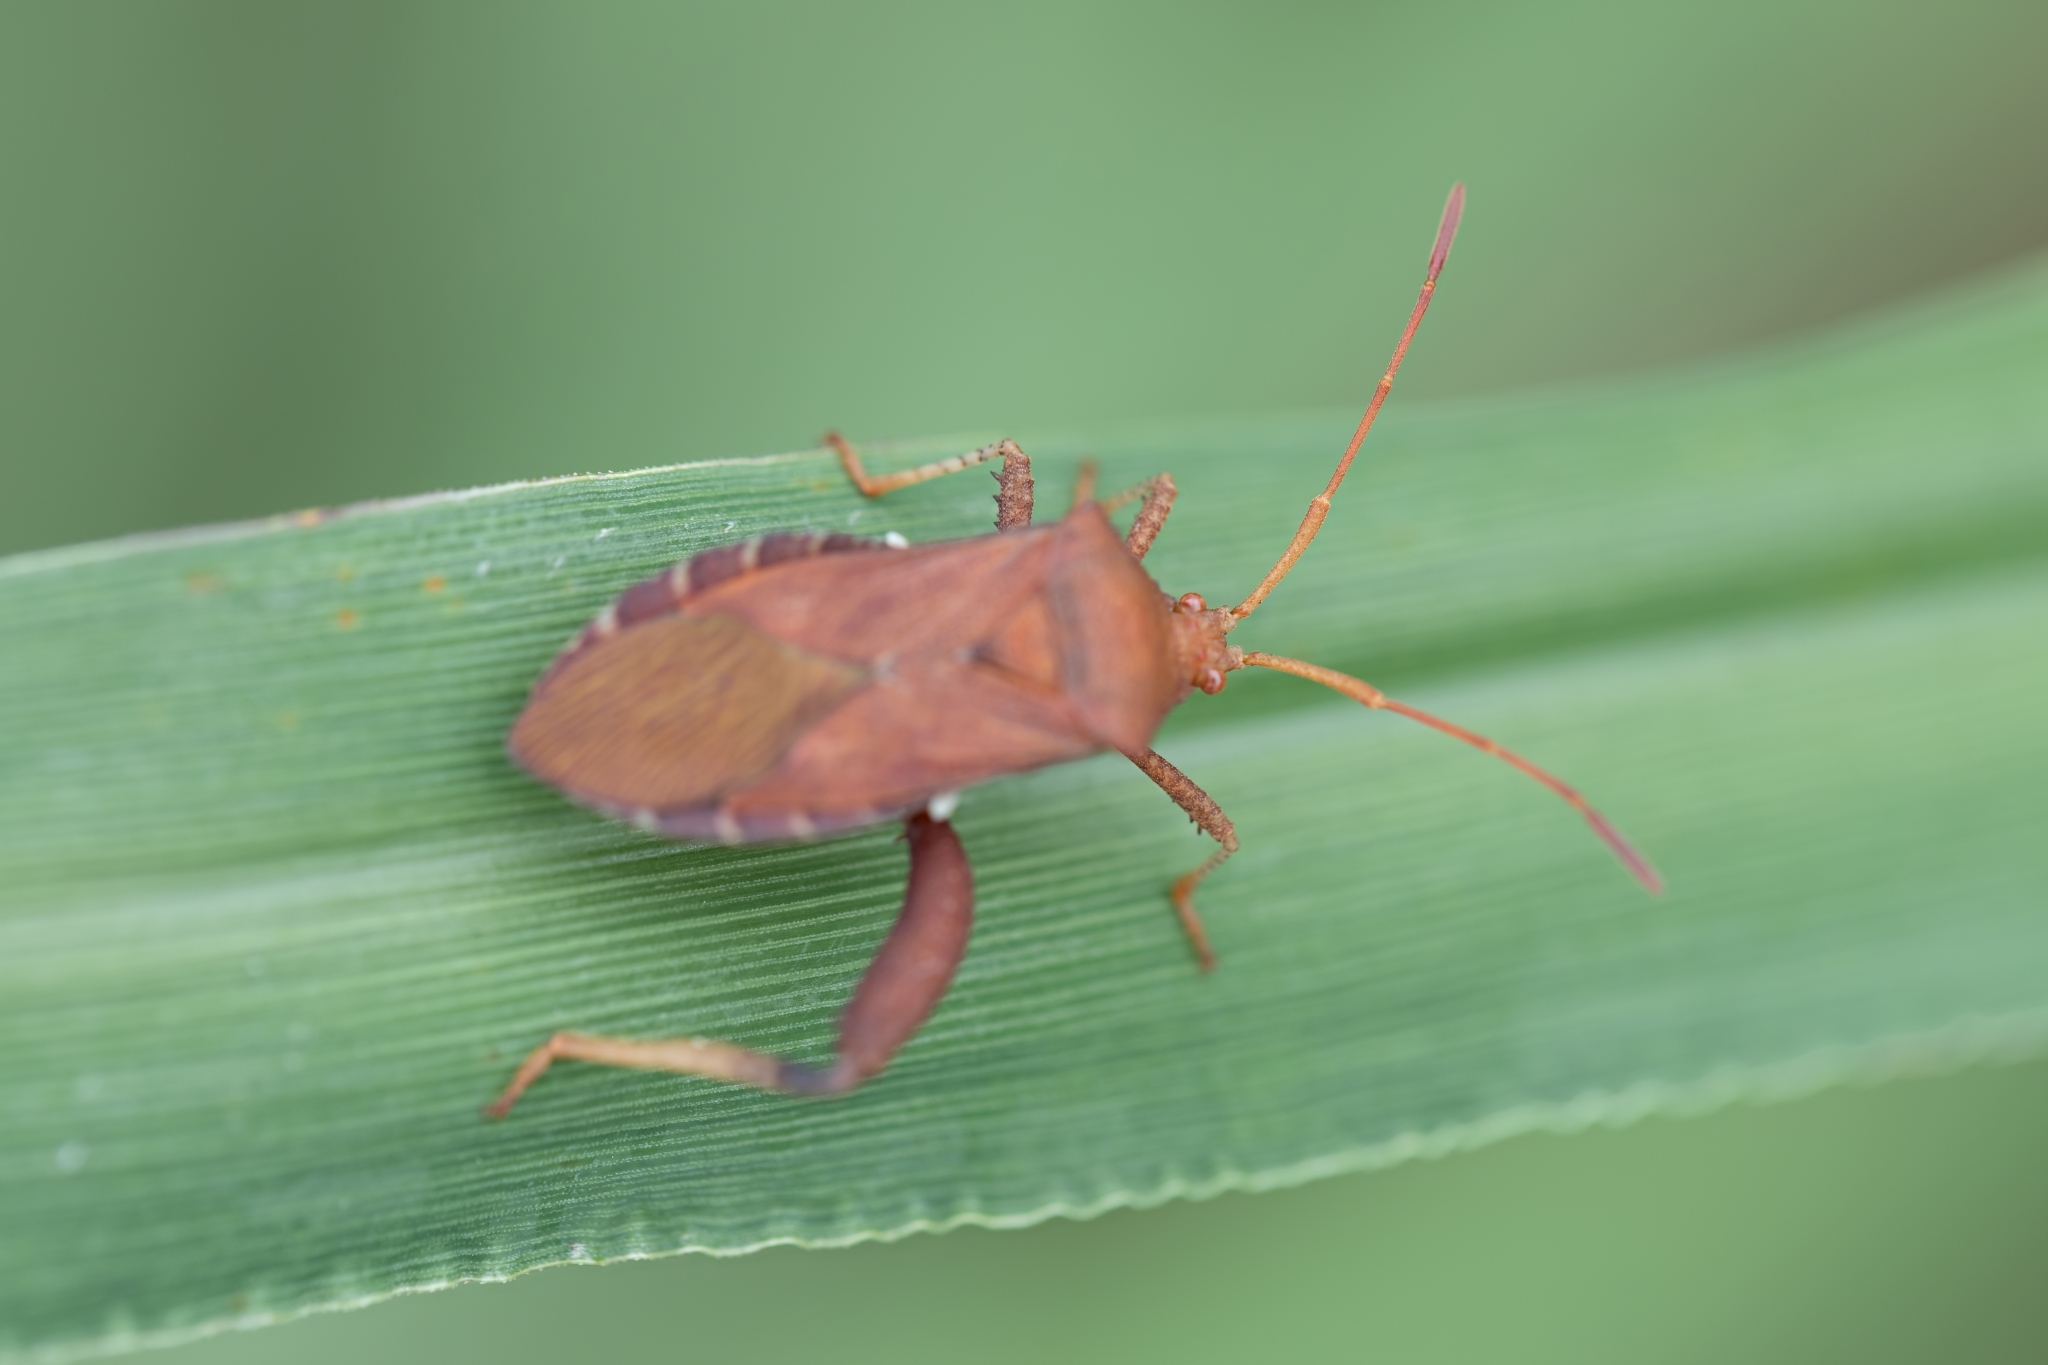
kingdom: Animalia
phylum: Arthropoda
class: Insecta
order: Hemiptera
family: Coreidae
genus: Euthochtha
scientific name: Euthochtha galeator
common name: Helmeted squash bug
